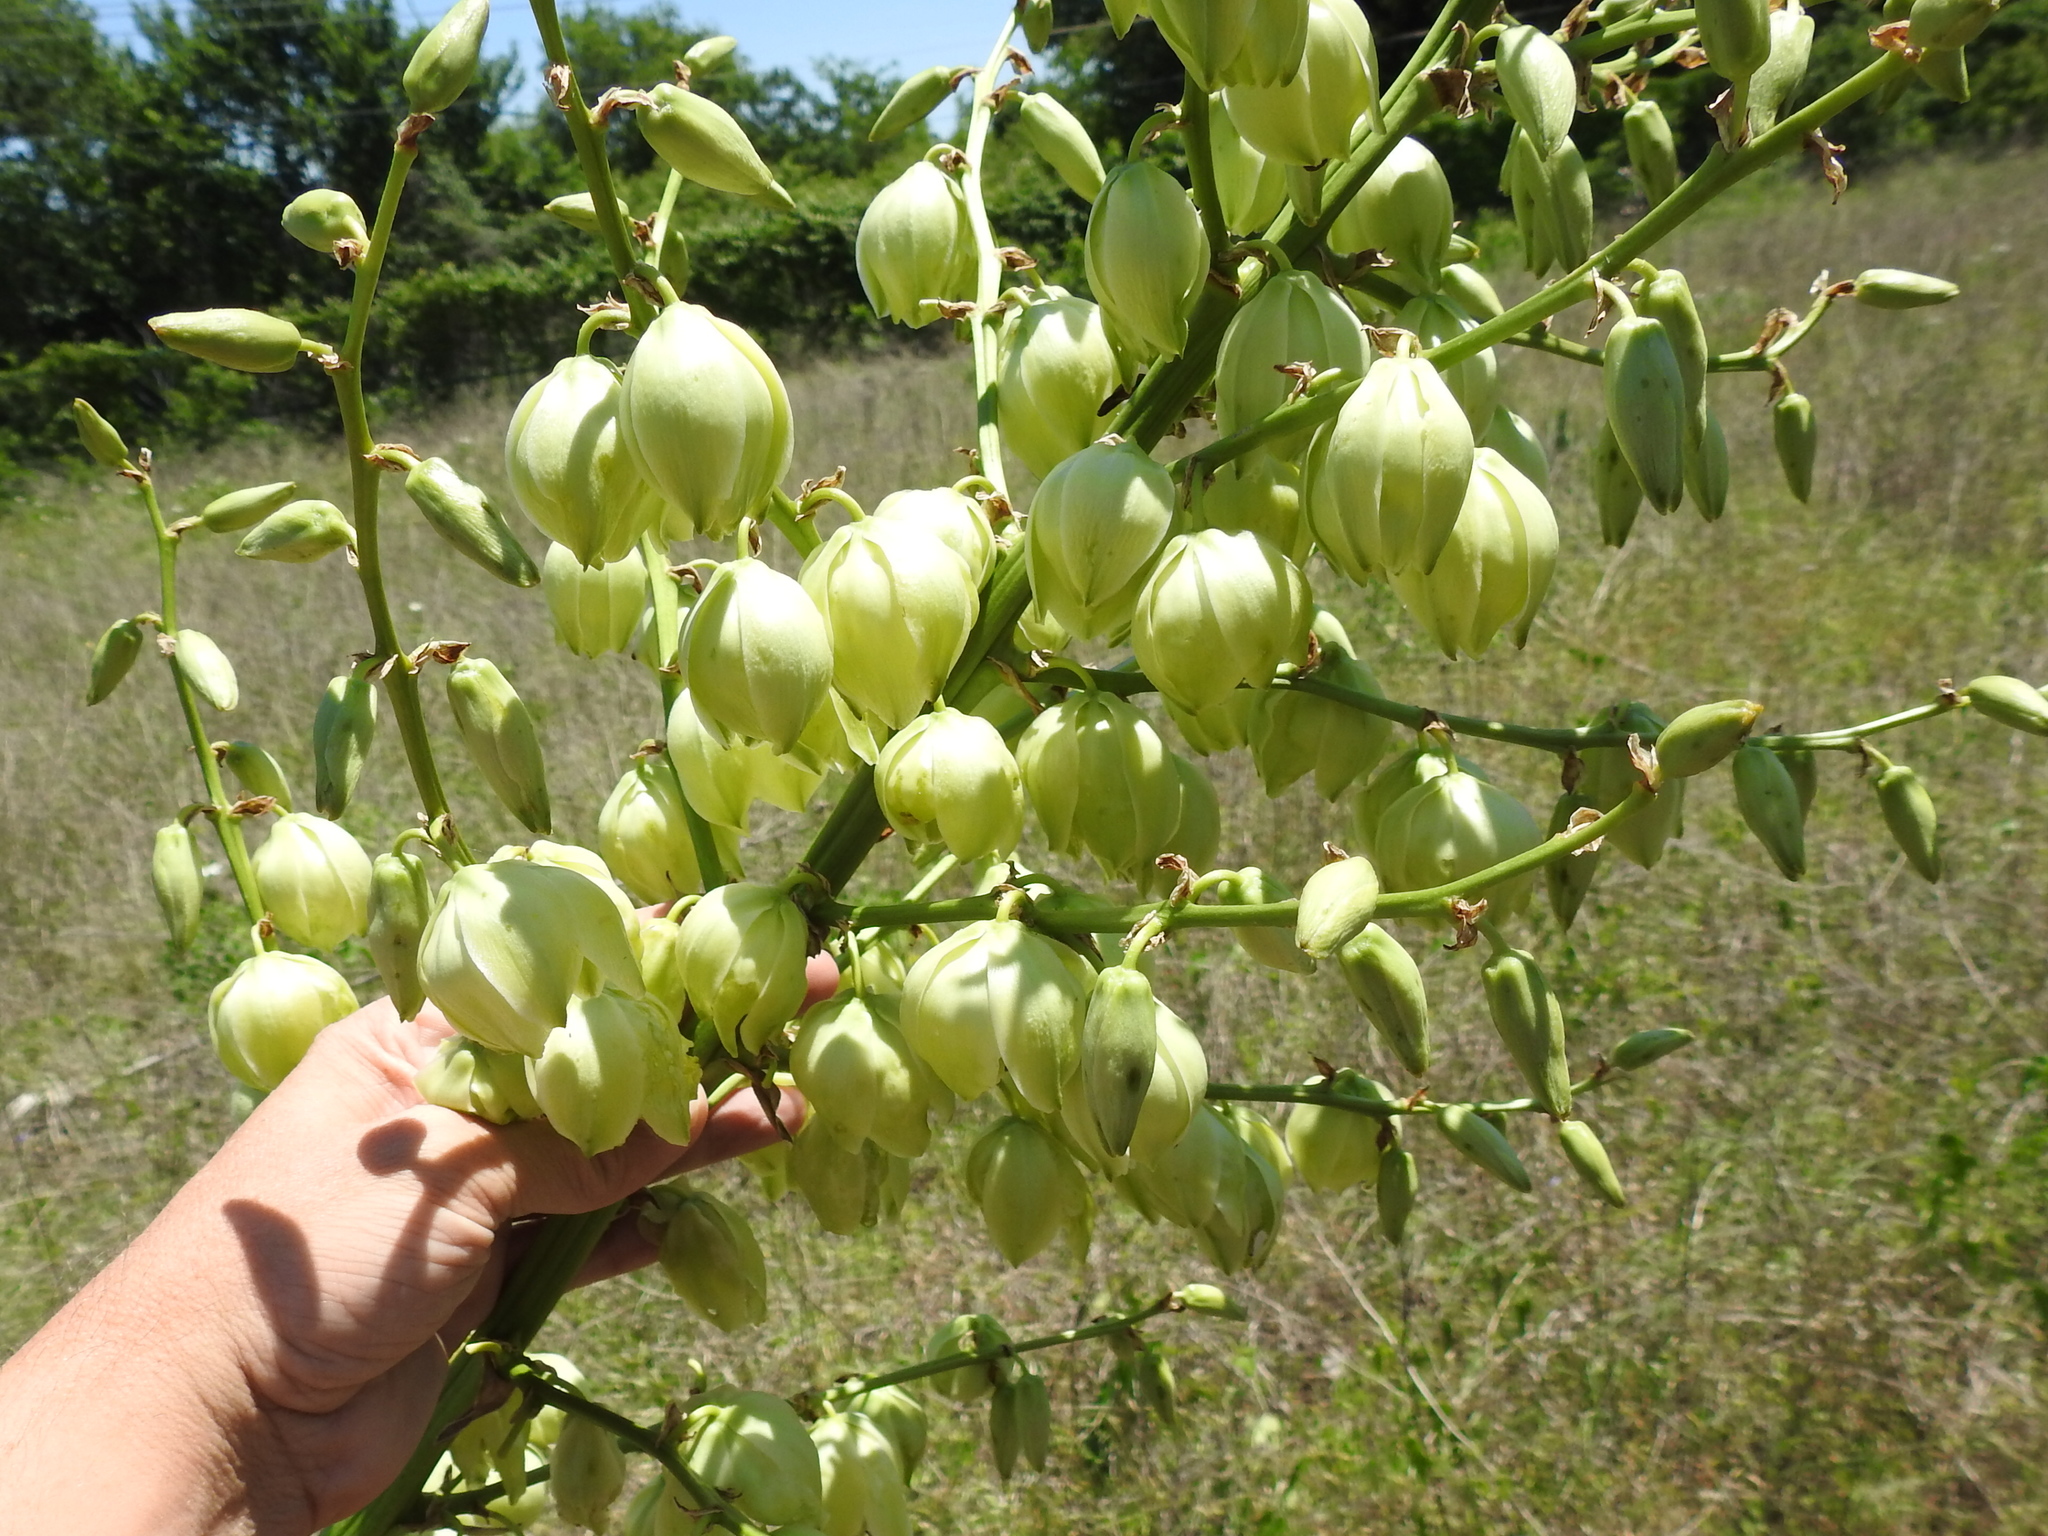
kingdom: Plantae
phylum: Tracheophyta
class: Liliopsida
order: Asparagales
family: Asparagaceae
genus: Yucca
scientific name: Yucca necopina
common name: Glen rose yucca
